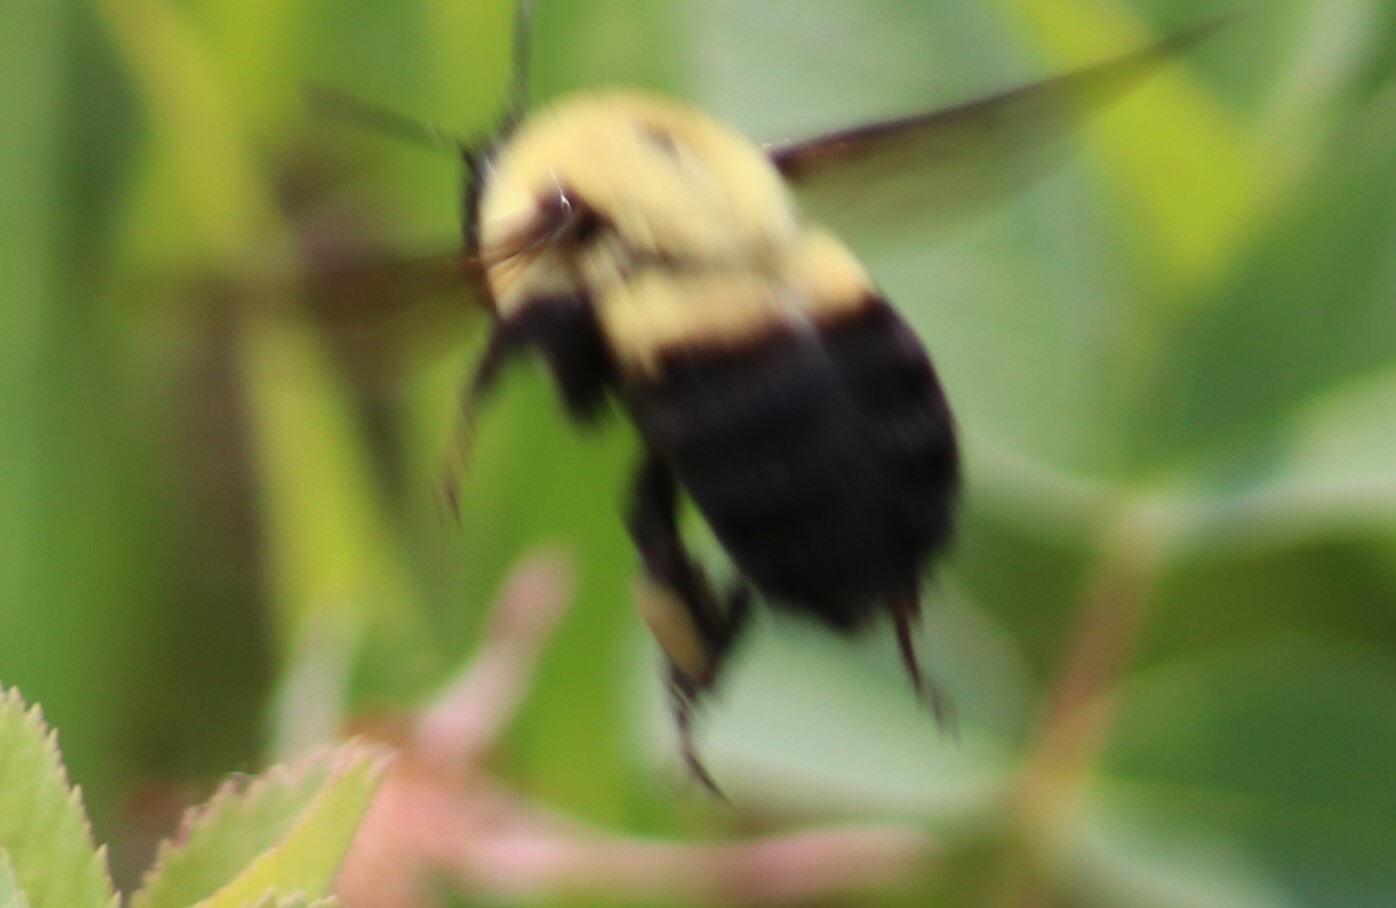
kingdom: Animalia
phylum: Arthropoda
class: Insecta
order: Hymenoptera
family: Apidae
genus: Bombus
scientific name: Bombus griseocollis
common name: Brown-belted bumble bee
